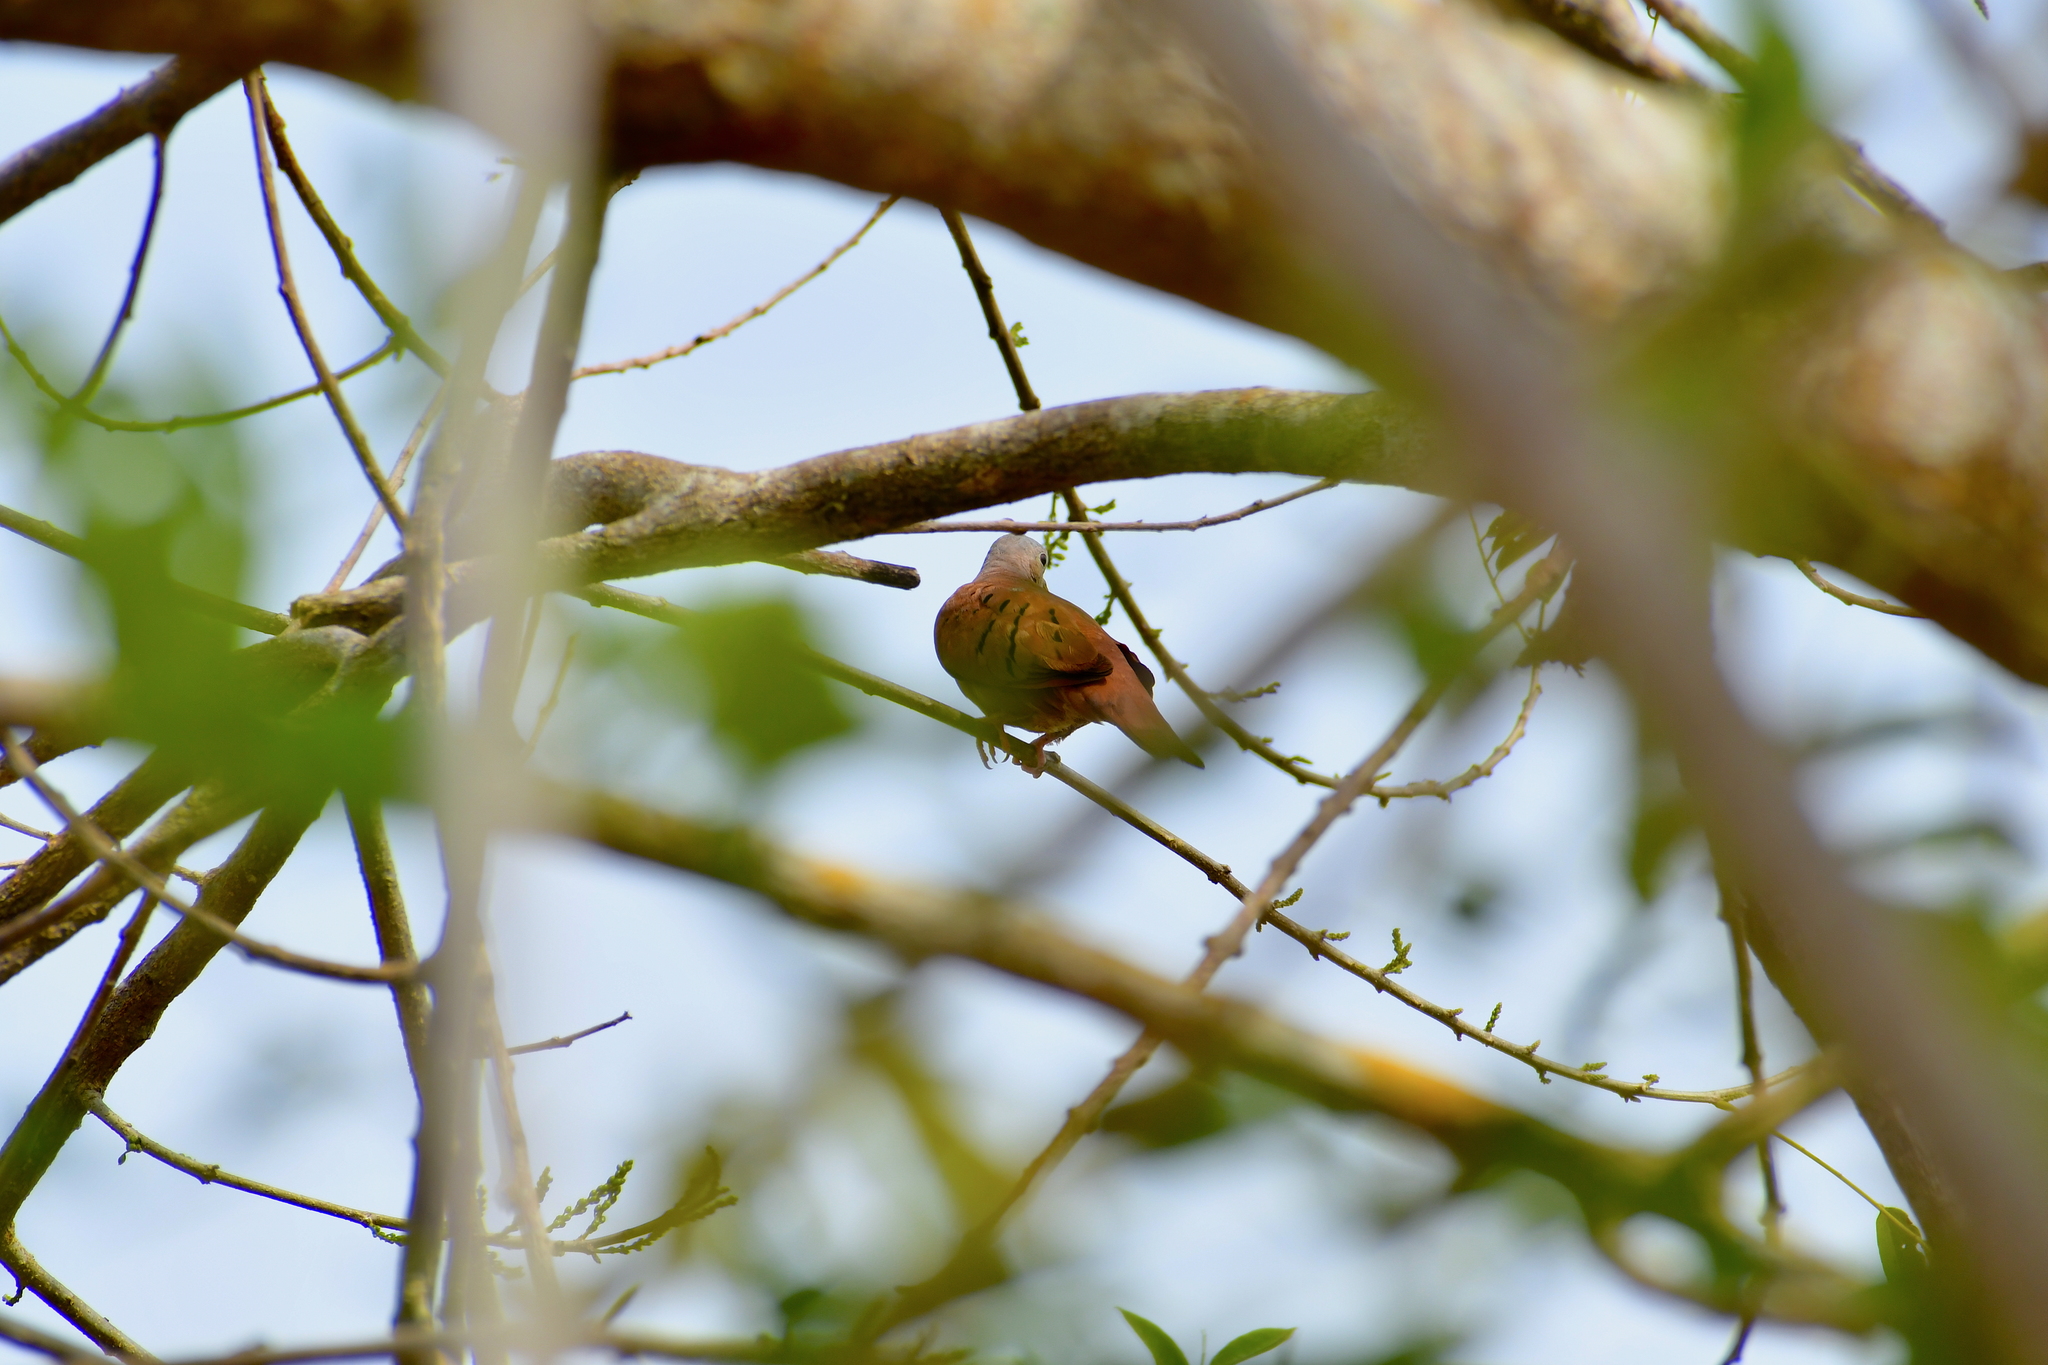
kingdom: Animalia
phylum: Chordata
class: Aves
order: Columbiformes
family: Columbidae
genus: Columbina
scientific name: Columbina talpacoti
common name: Ruddy ground dove
